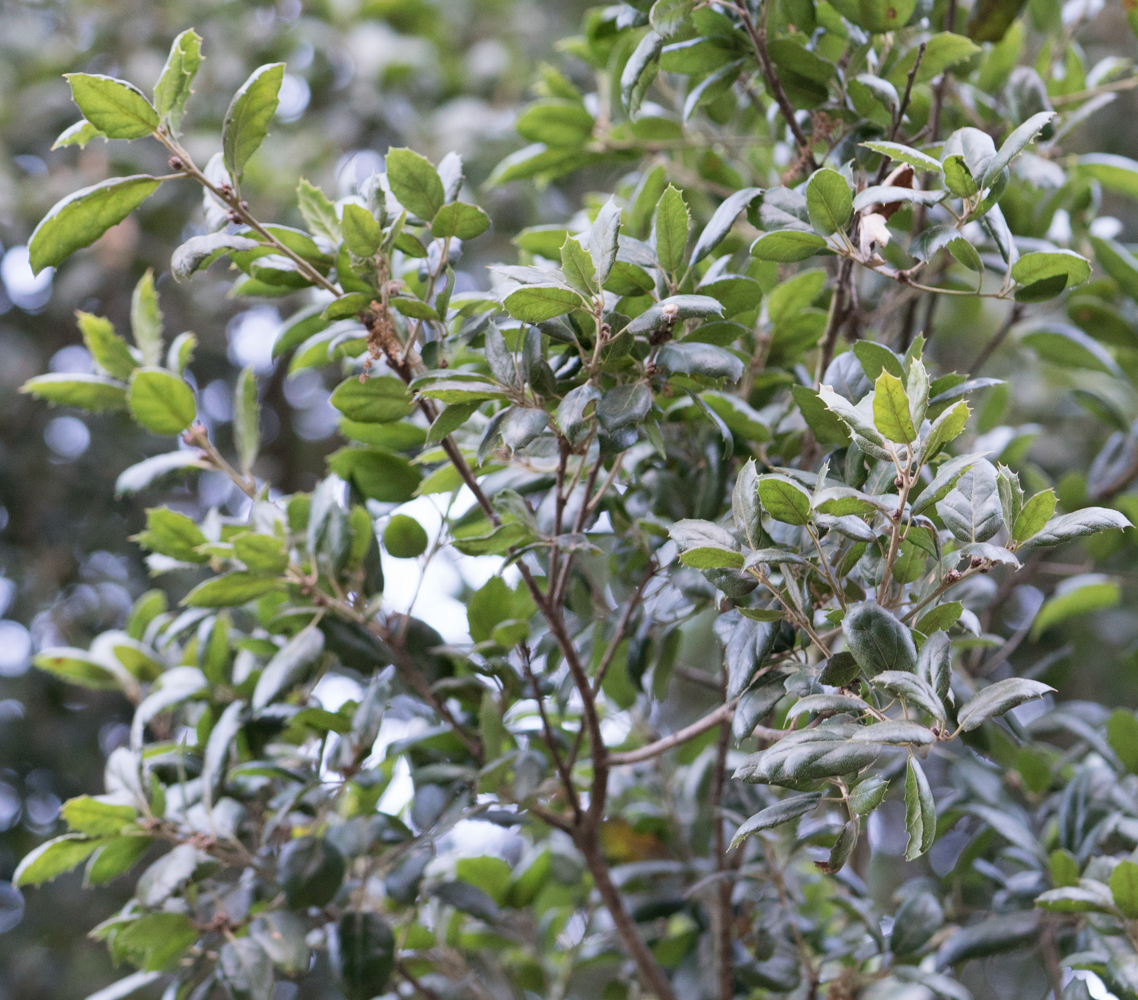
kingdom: Plantae
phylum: Tracheophyta
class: Magnoliopsida
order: Fagales
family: Fagaceae
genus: Quercus
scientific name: Quercus agrifolia
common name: California live oak
